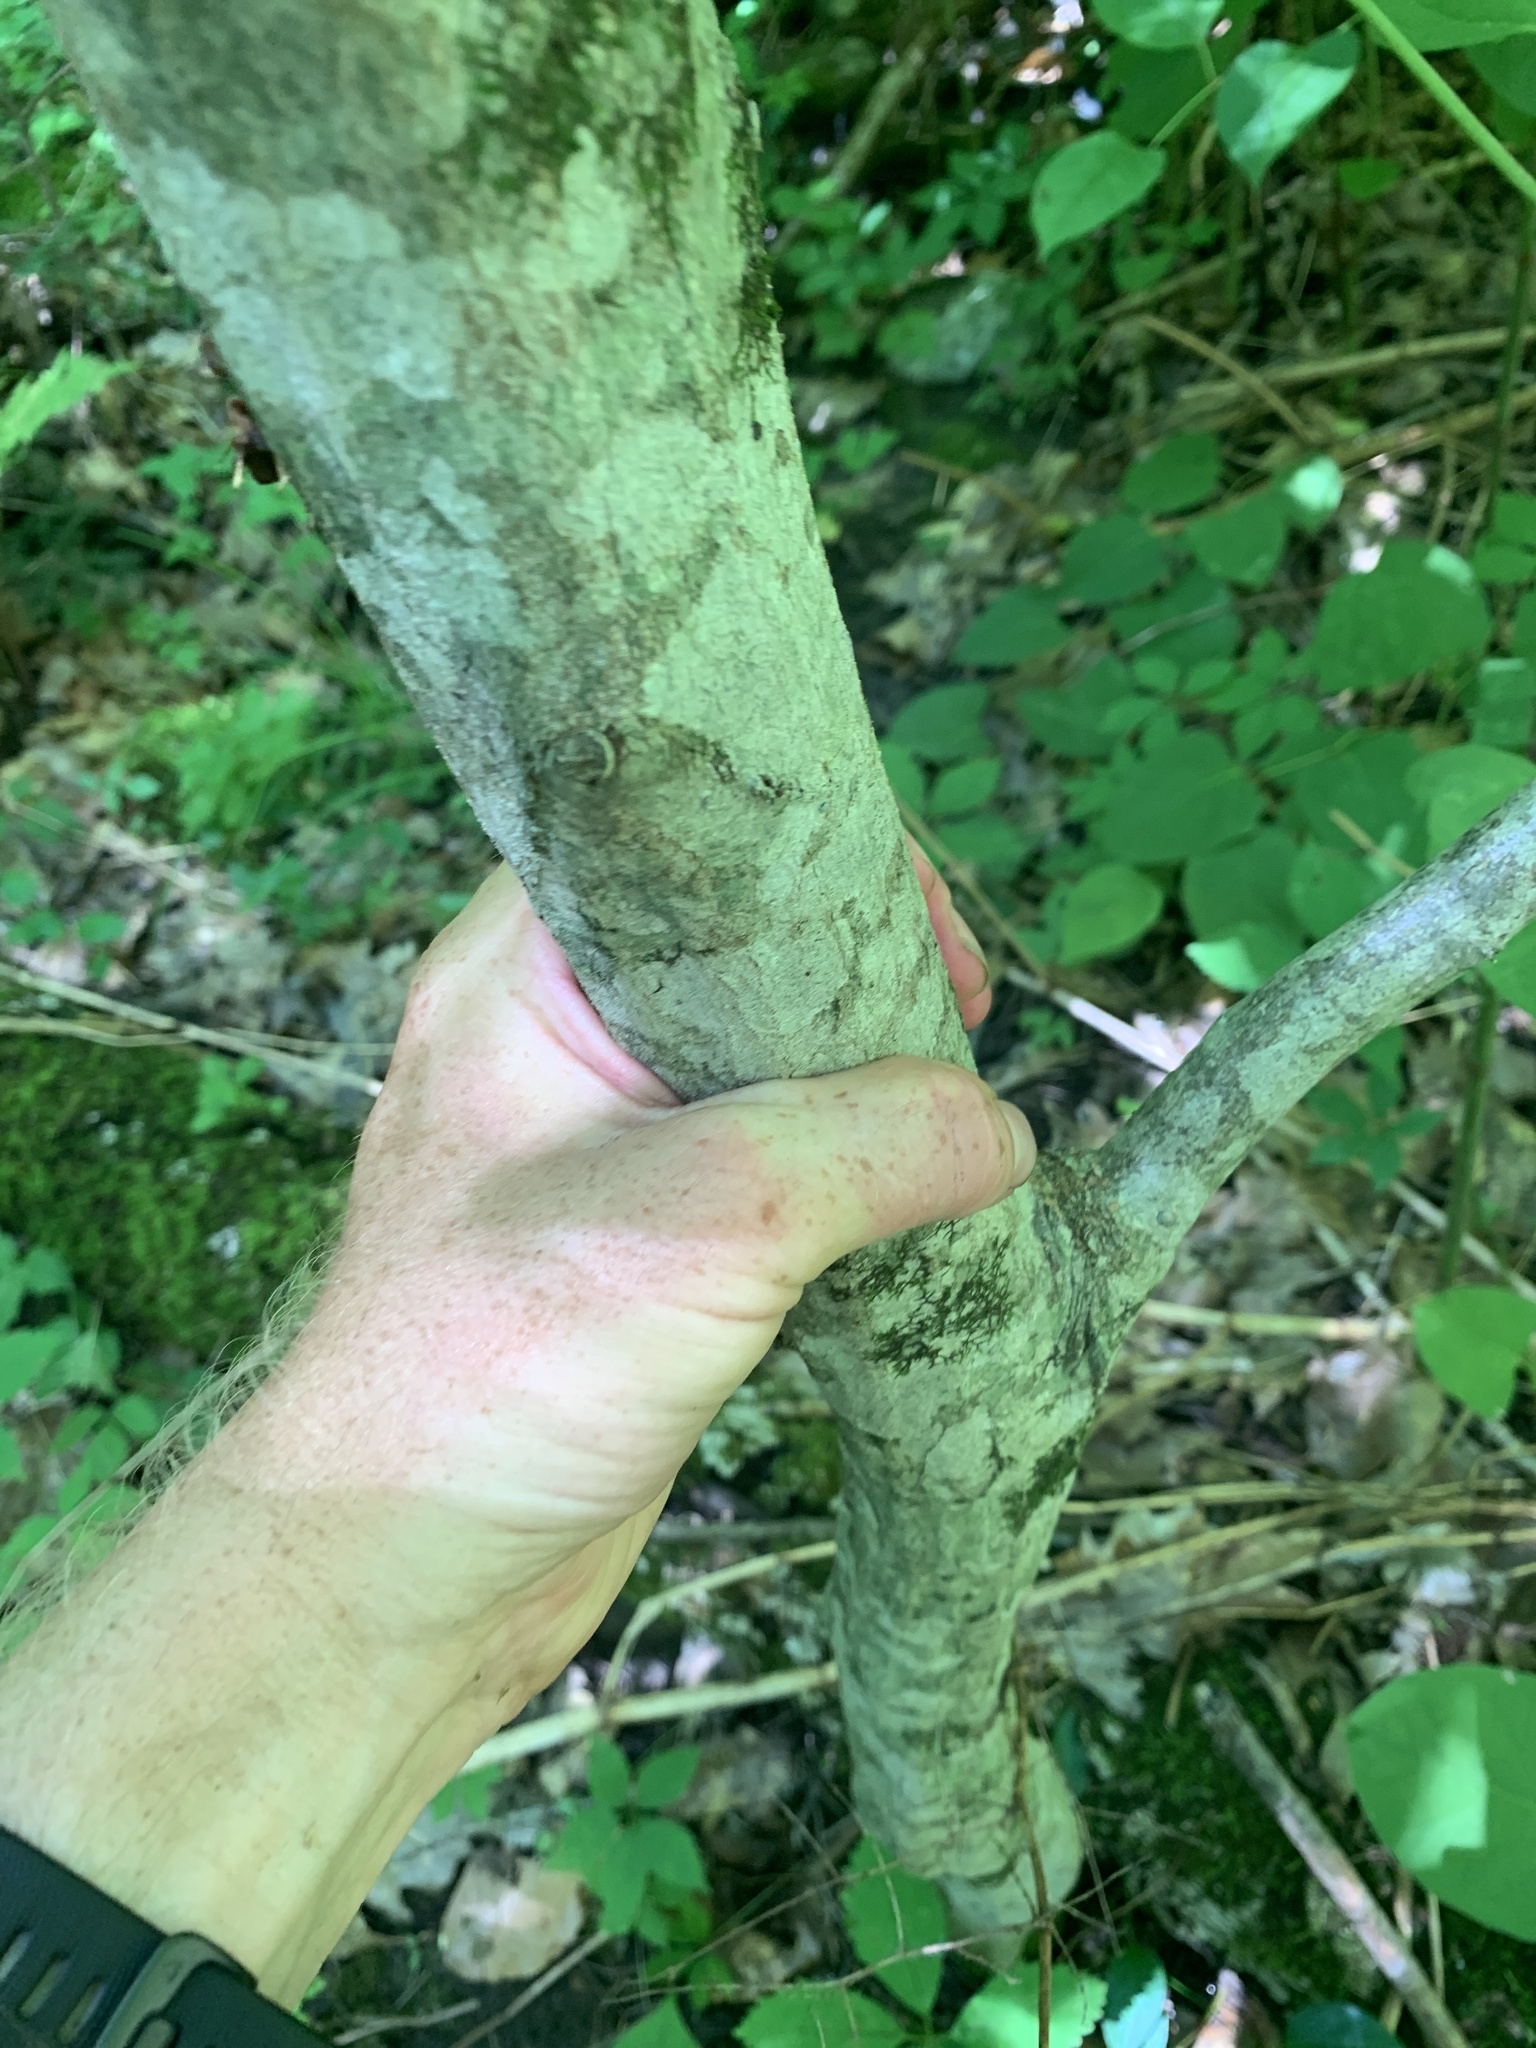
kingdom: Plantae
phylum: Tracheophyta
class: Magnoliopsida
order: Fagales
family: Betulaceae
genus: Carpinus
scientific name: Carpinus caroliniana
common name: American hornbeam
